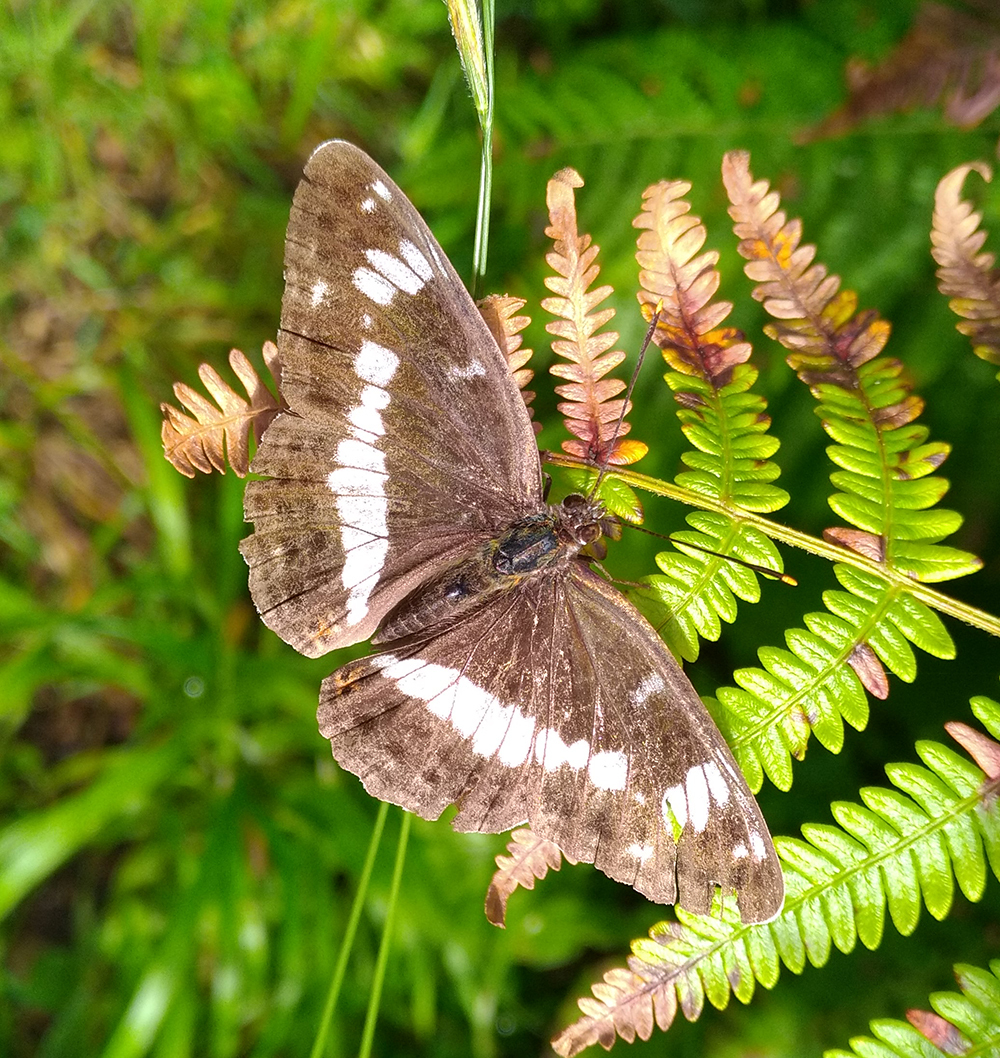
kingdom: Animalia
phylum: Arthropoda
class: Insecta
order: Lepidoptera
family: Nymphalidae
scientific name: Nymphalidae
